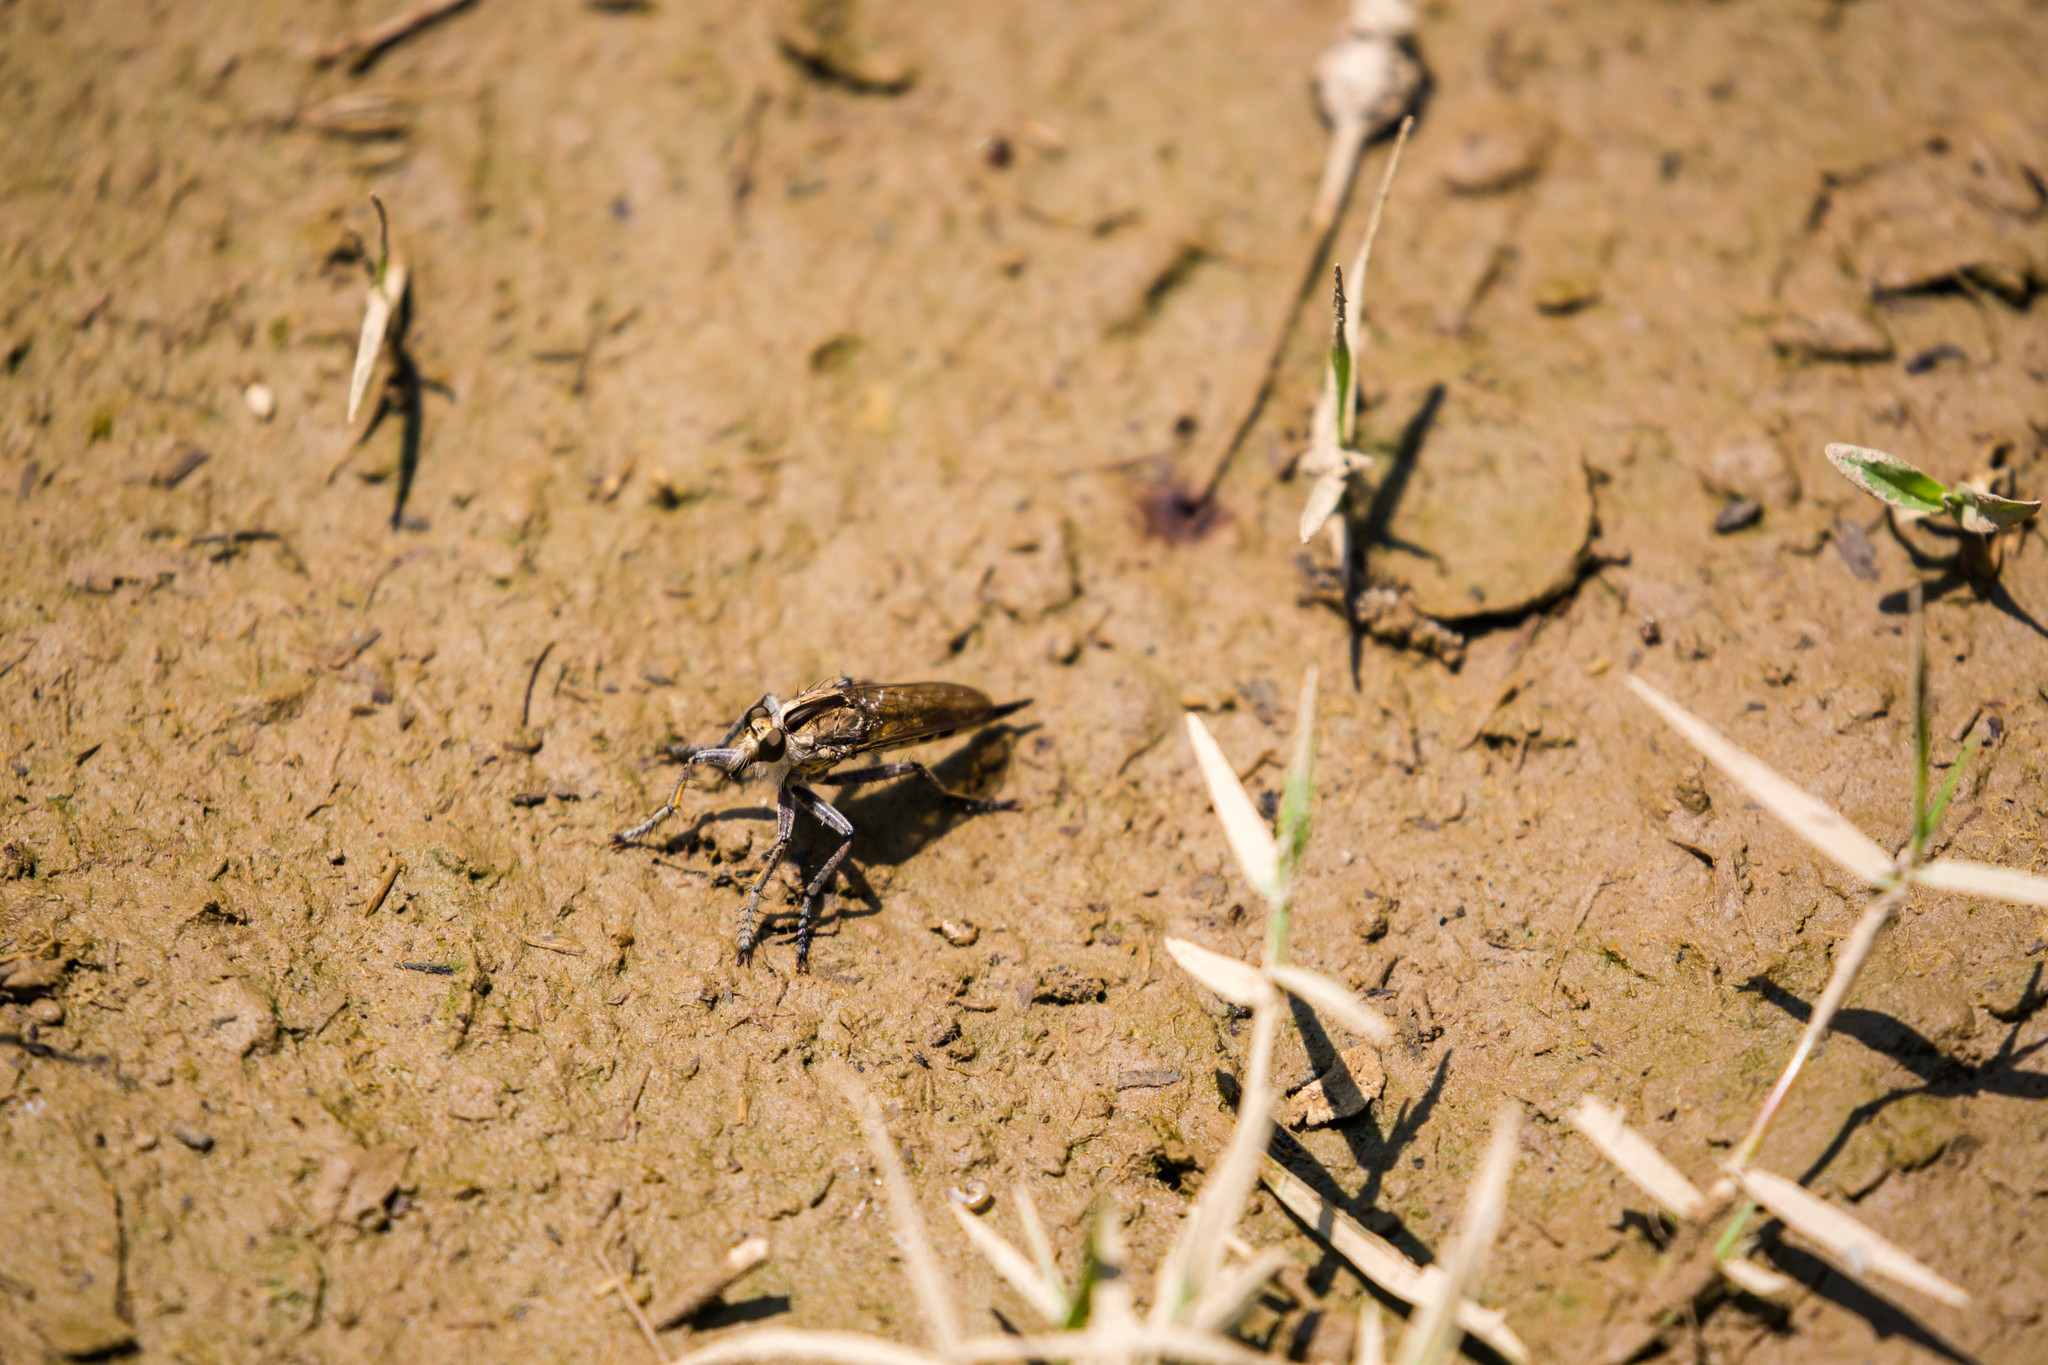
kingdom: Animalia
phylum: Arthropoda
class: Insecta
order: Diptera
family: Asilidae
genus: Triorla
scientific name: Triorla interrupta
